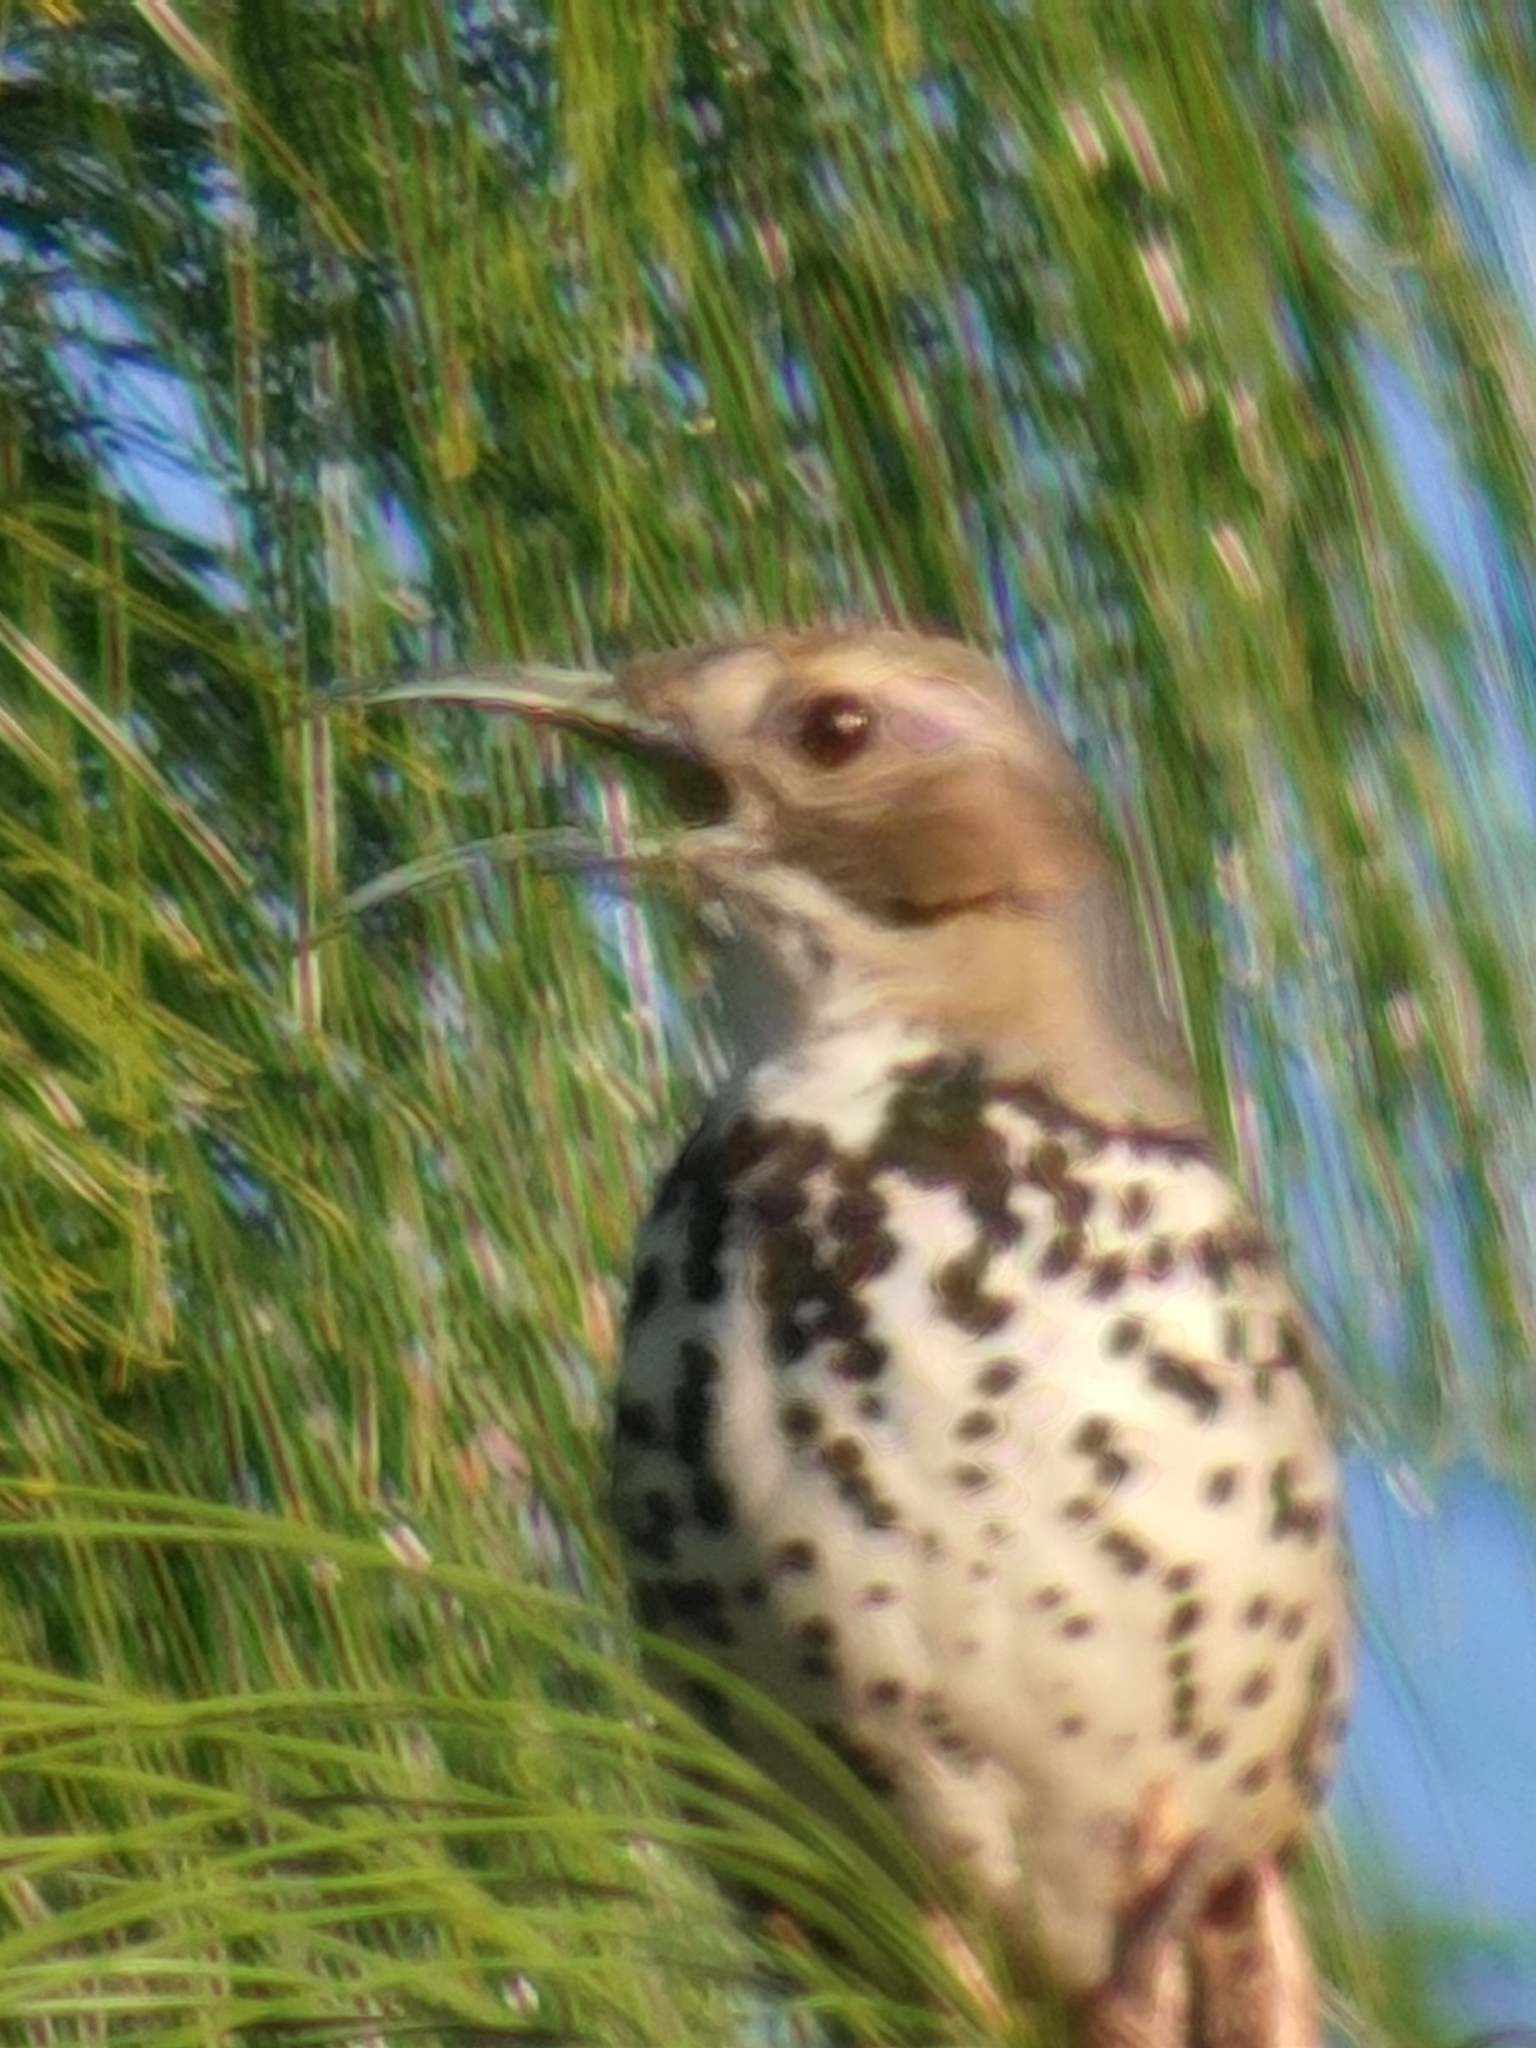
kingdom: Animalia
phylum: Chordata
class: Aves
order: Passeriformes
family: Mimidae
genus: Toxostoma
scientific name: Toxostoma ocellatum
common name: Ocellated thrasher
